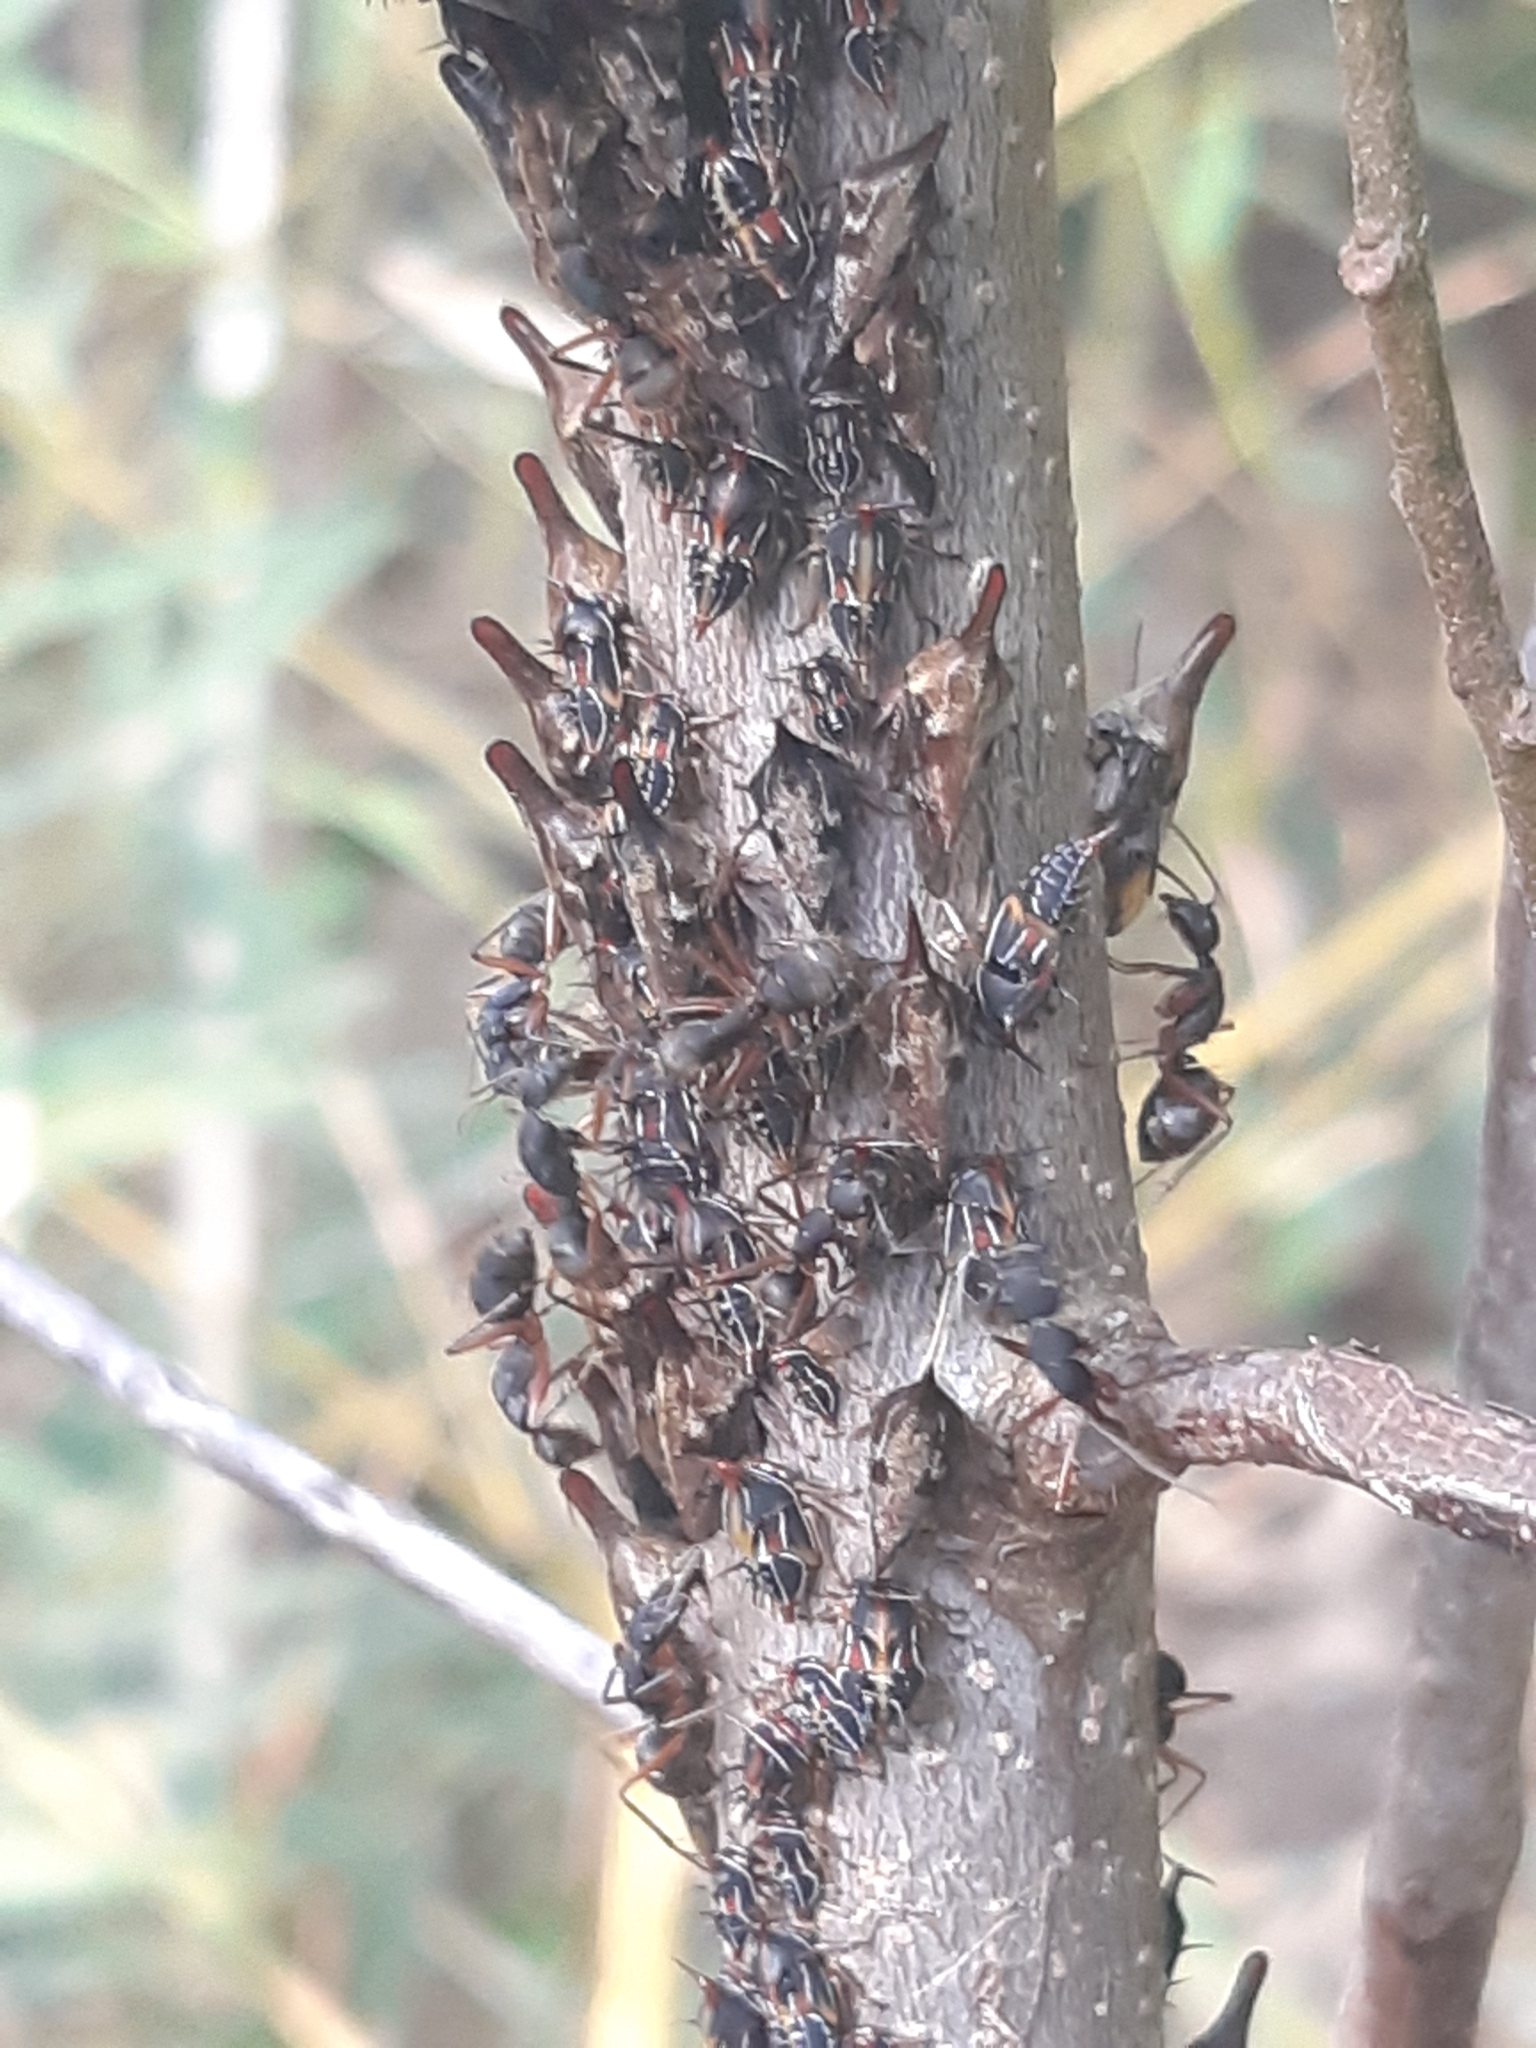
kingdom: Animalia
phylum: Arthropoda
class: Insecta
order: Hemiptera
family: Membracidae
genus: Guayaquila
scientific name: Guayaquila xiphias
